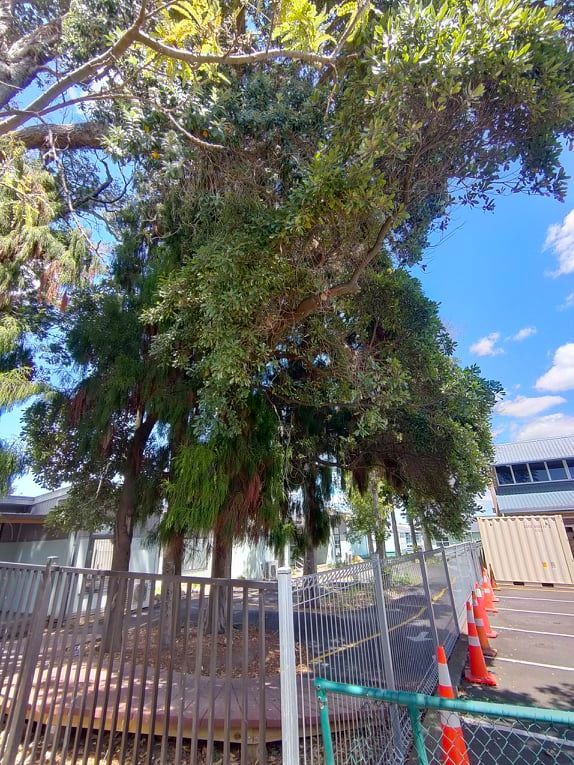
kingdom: Plantae
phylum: Tracheophyta
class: Magnoliopsida
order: Oxalidales
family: Elaeocarpaceae
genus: Elaeocarpus
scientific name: Elaeocarpus dentatus
